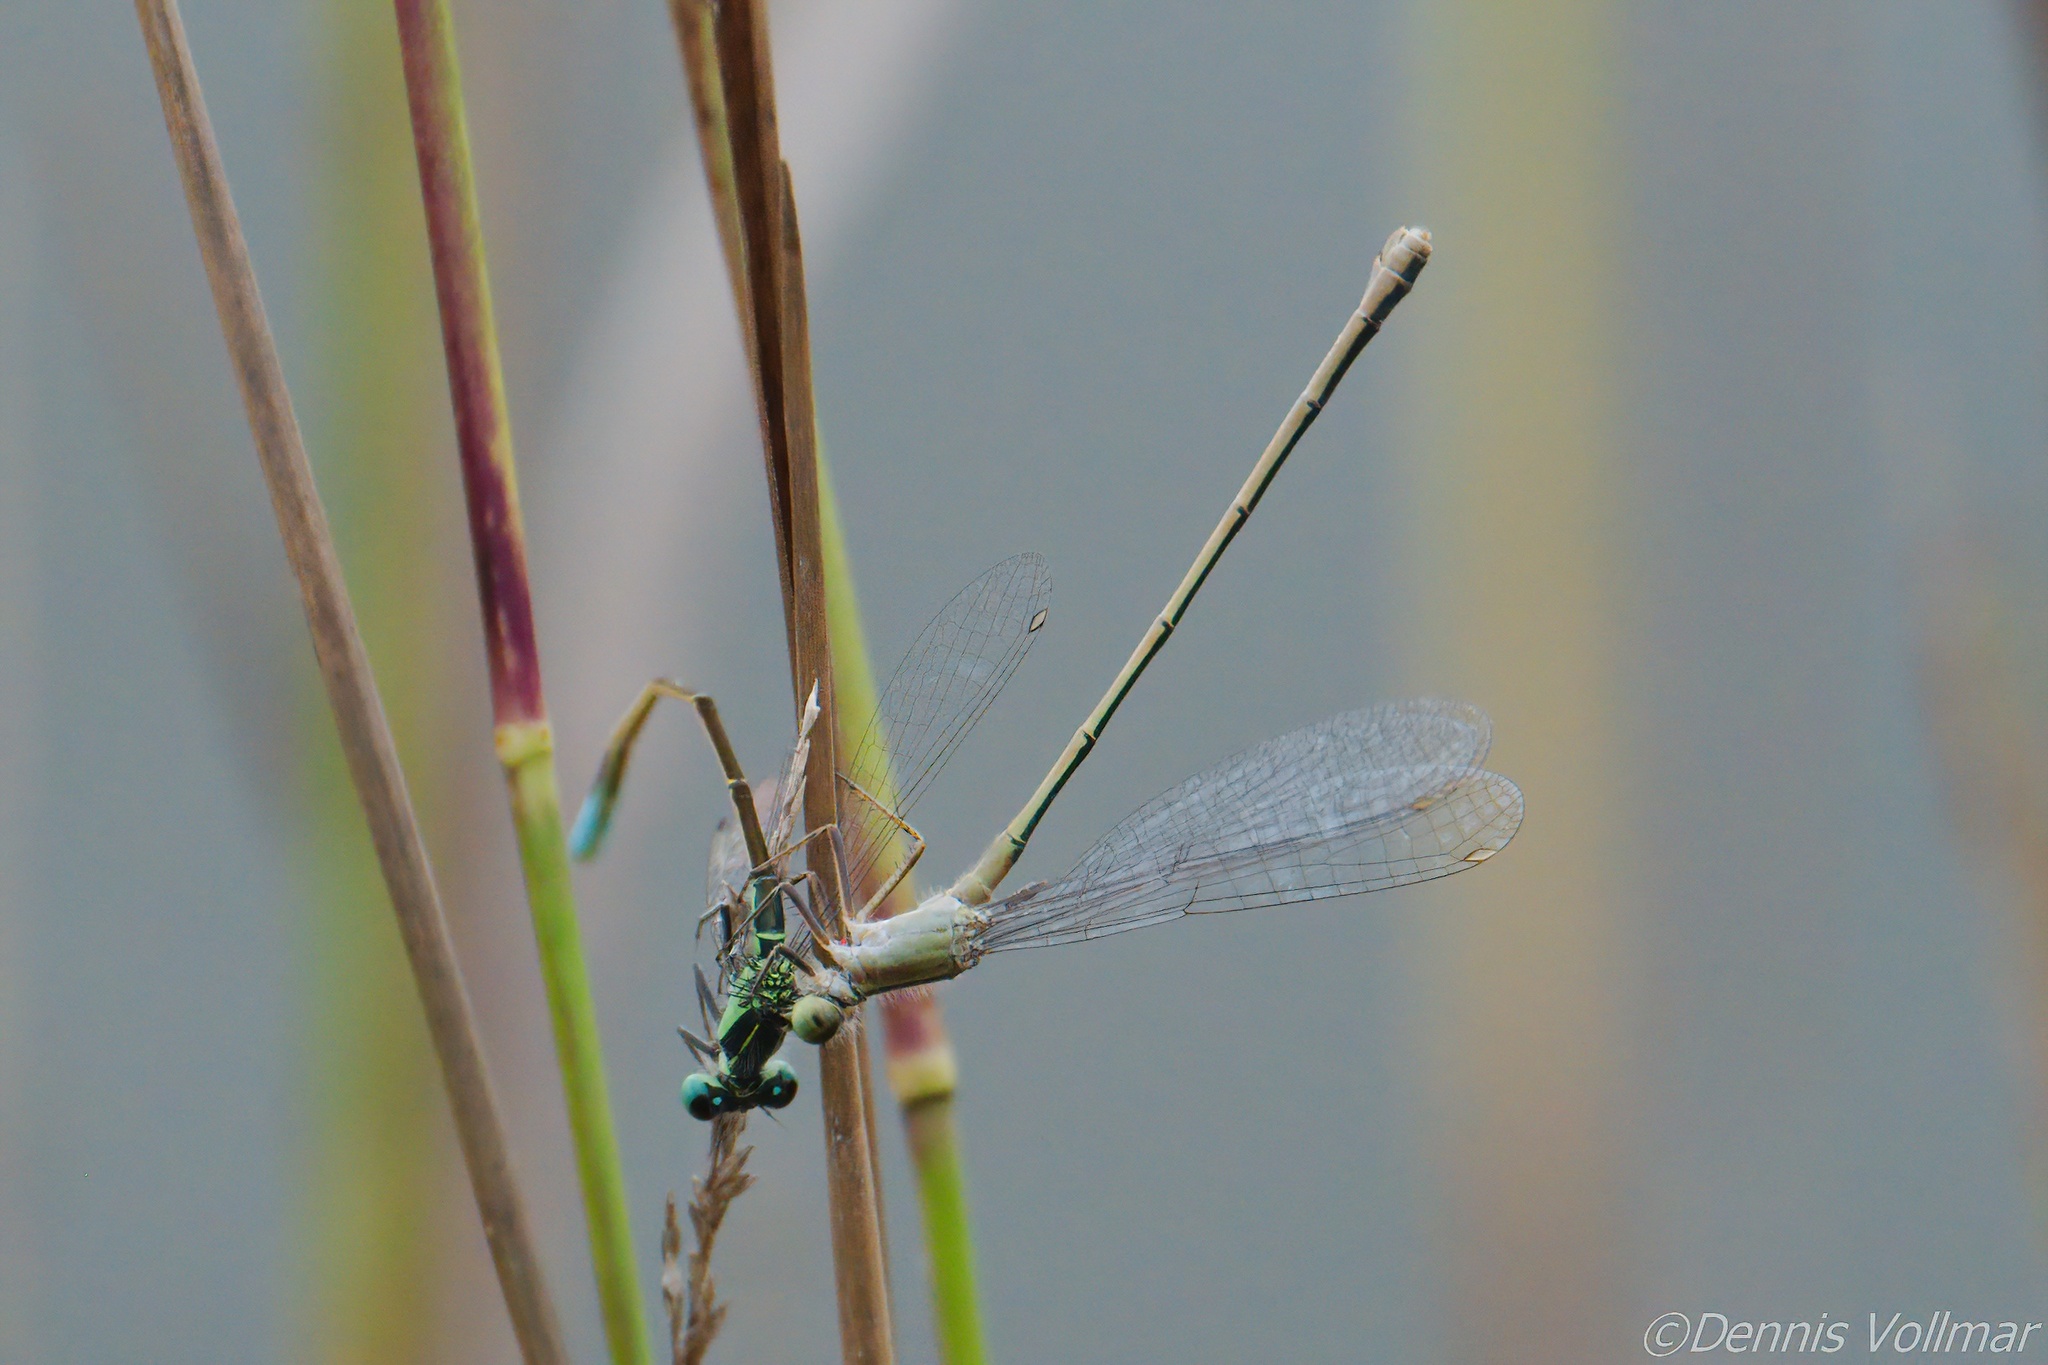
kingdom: Animalia
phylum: Arthropoda
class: Insecta
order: Odonata
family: Coenagrionidae
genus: Ischnura
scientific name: Ischnura ramburii
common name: Rambur's forktail
